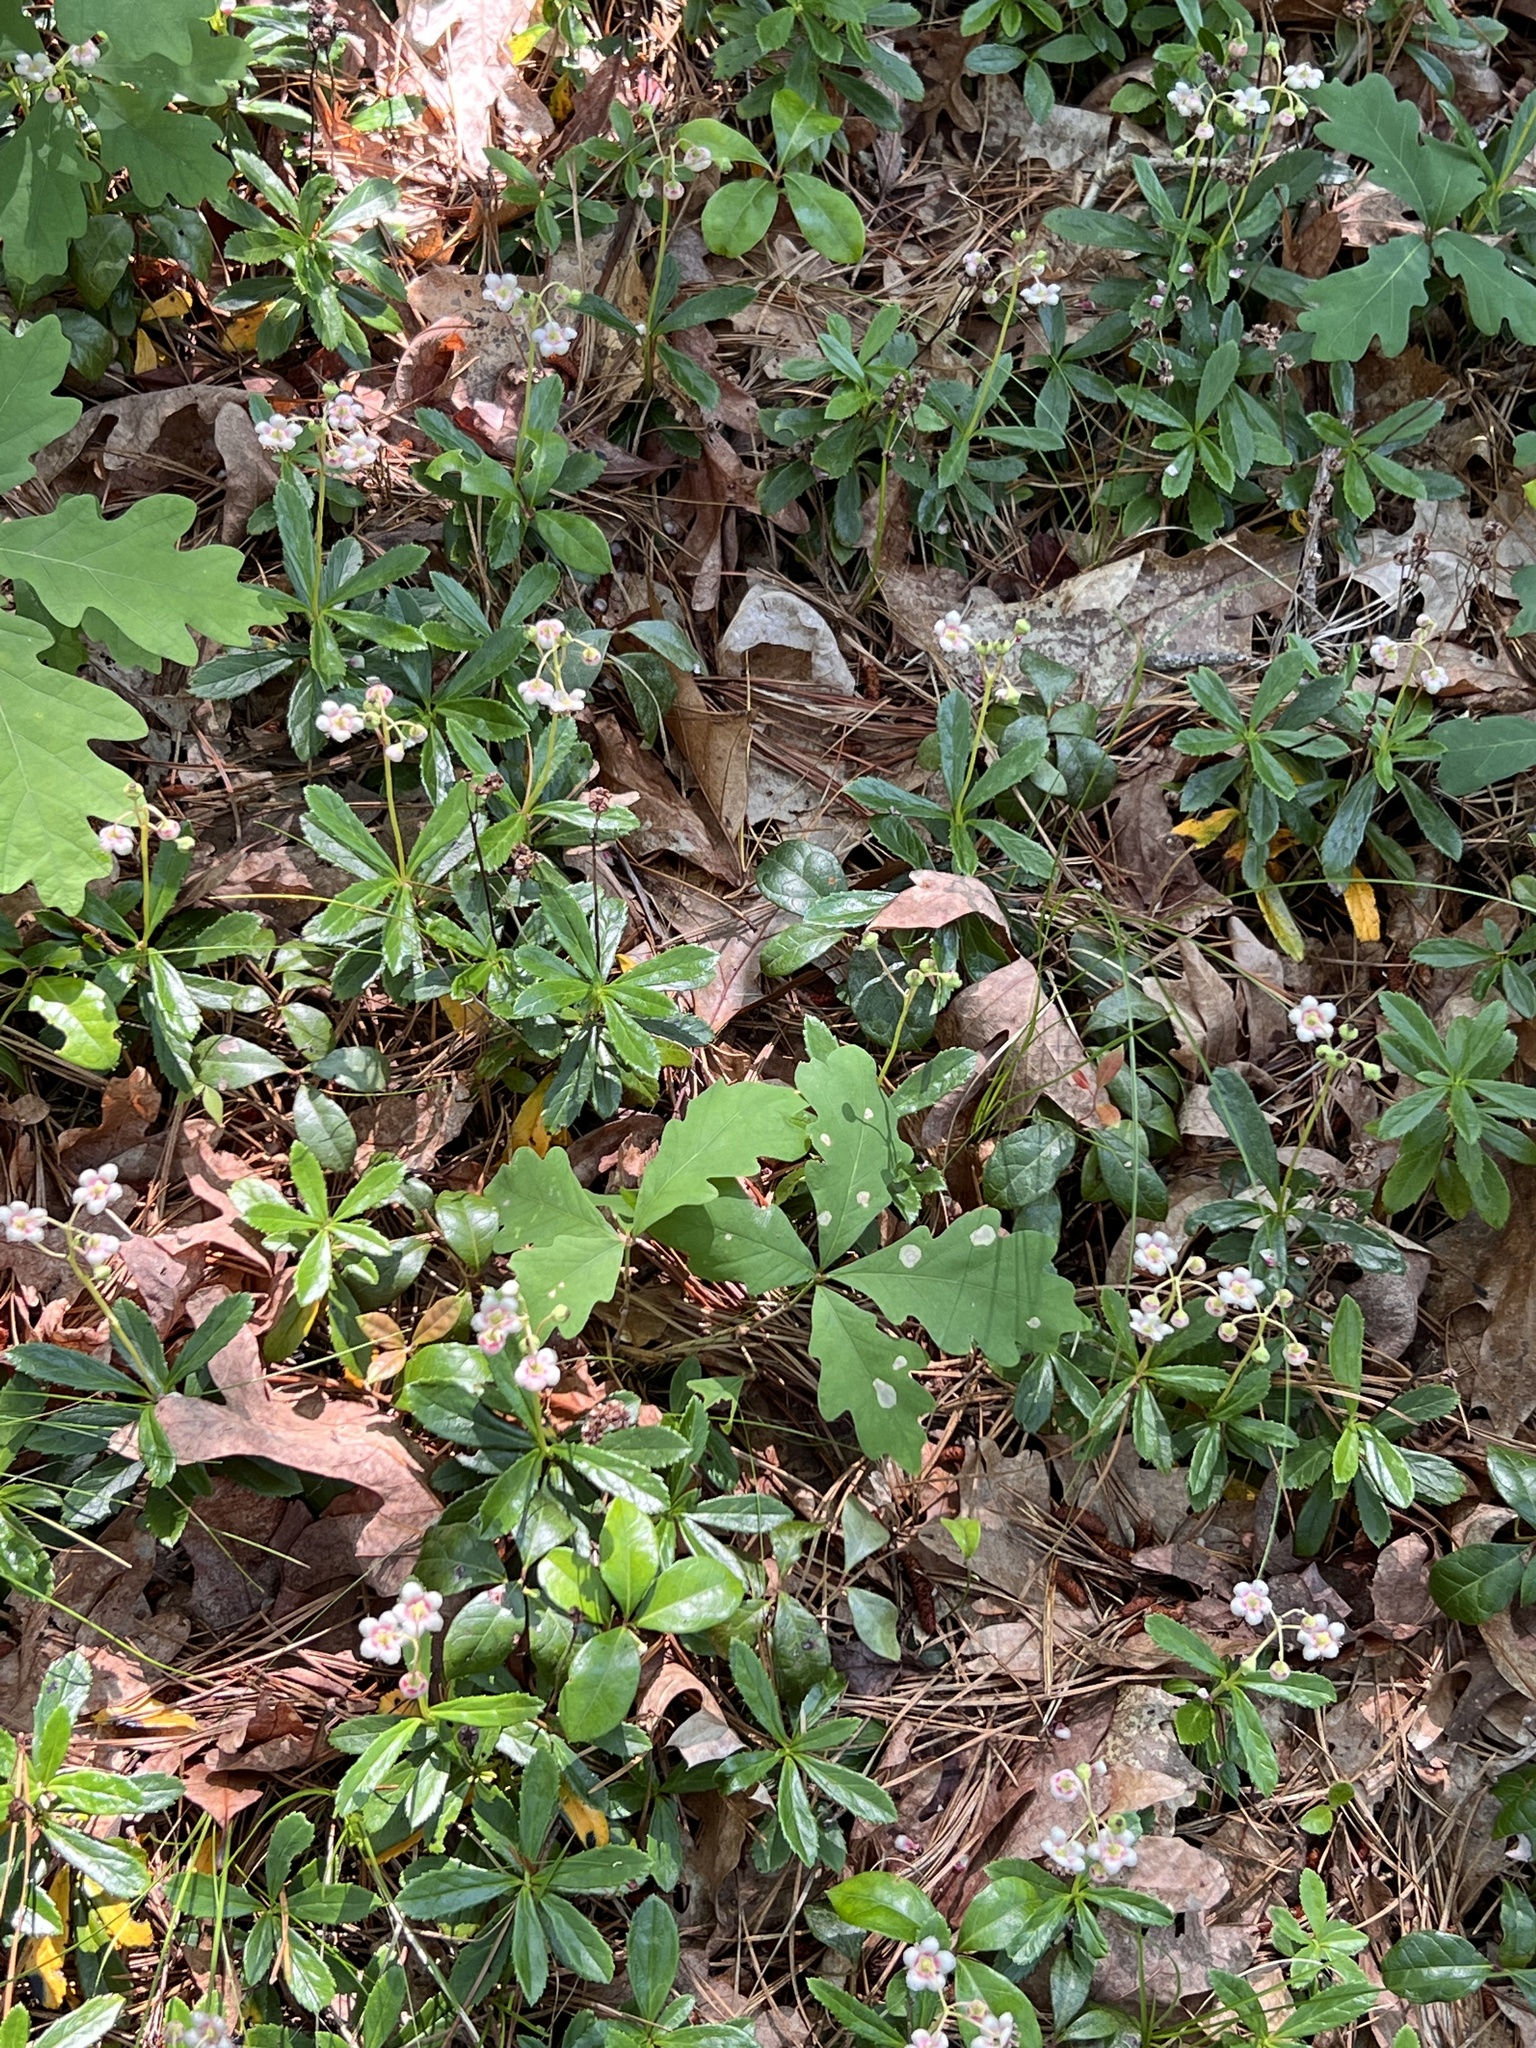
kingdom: Plantae
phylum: Tracheophyta
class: Magnoliopsida
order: Ericales
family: Ericaceae
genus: Chimaphila
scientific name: Chimaphila umbellata
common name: Pipsissewa
